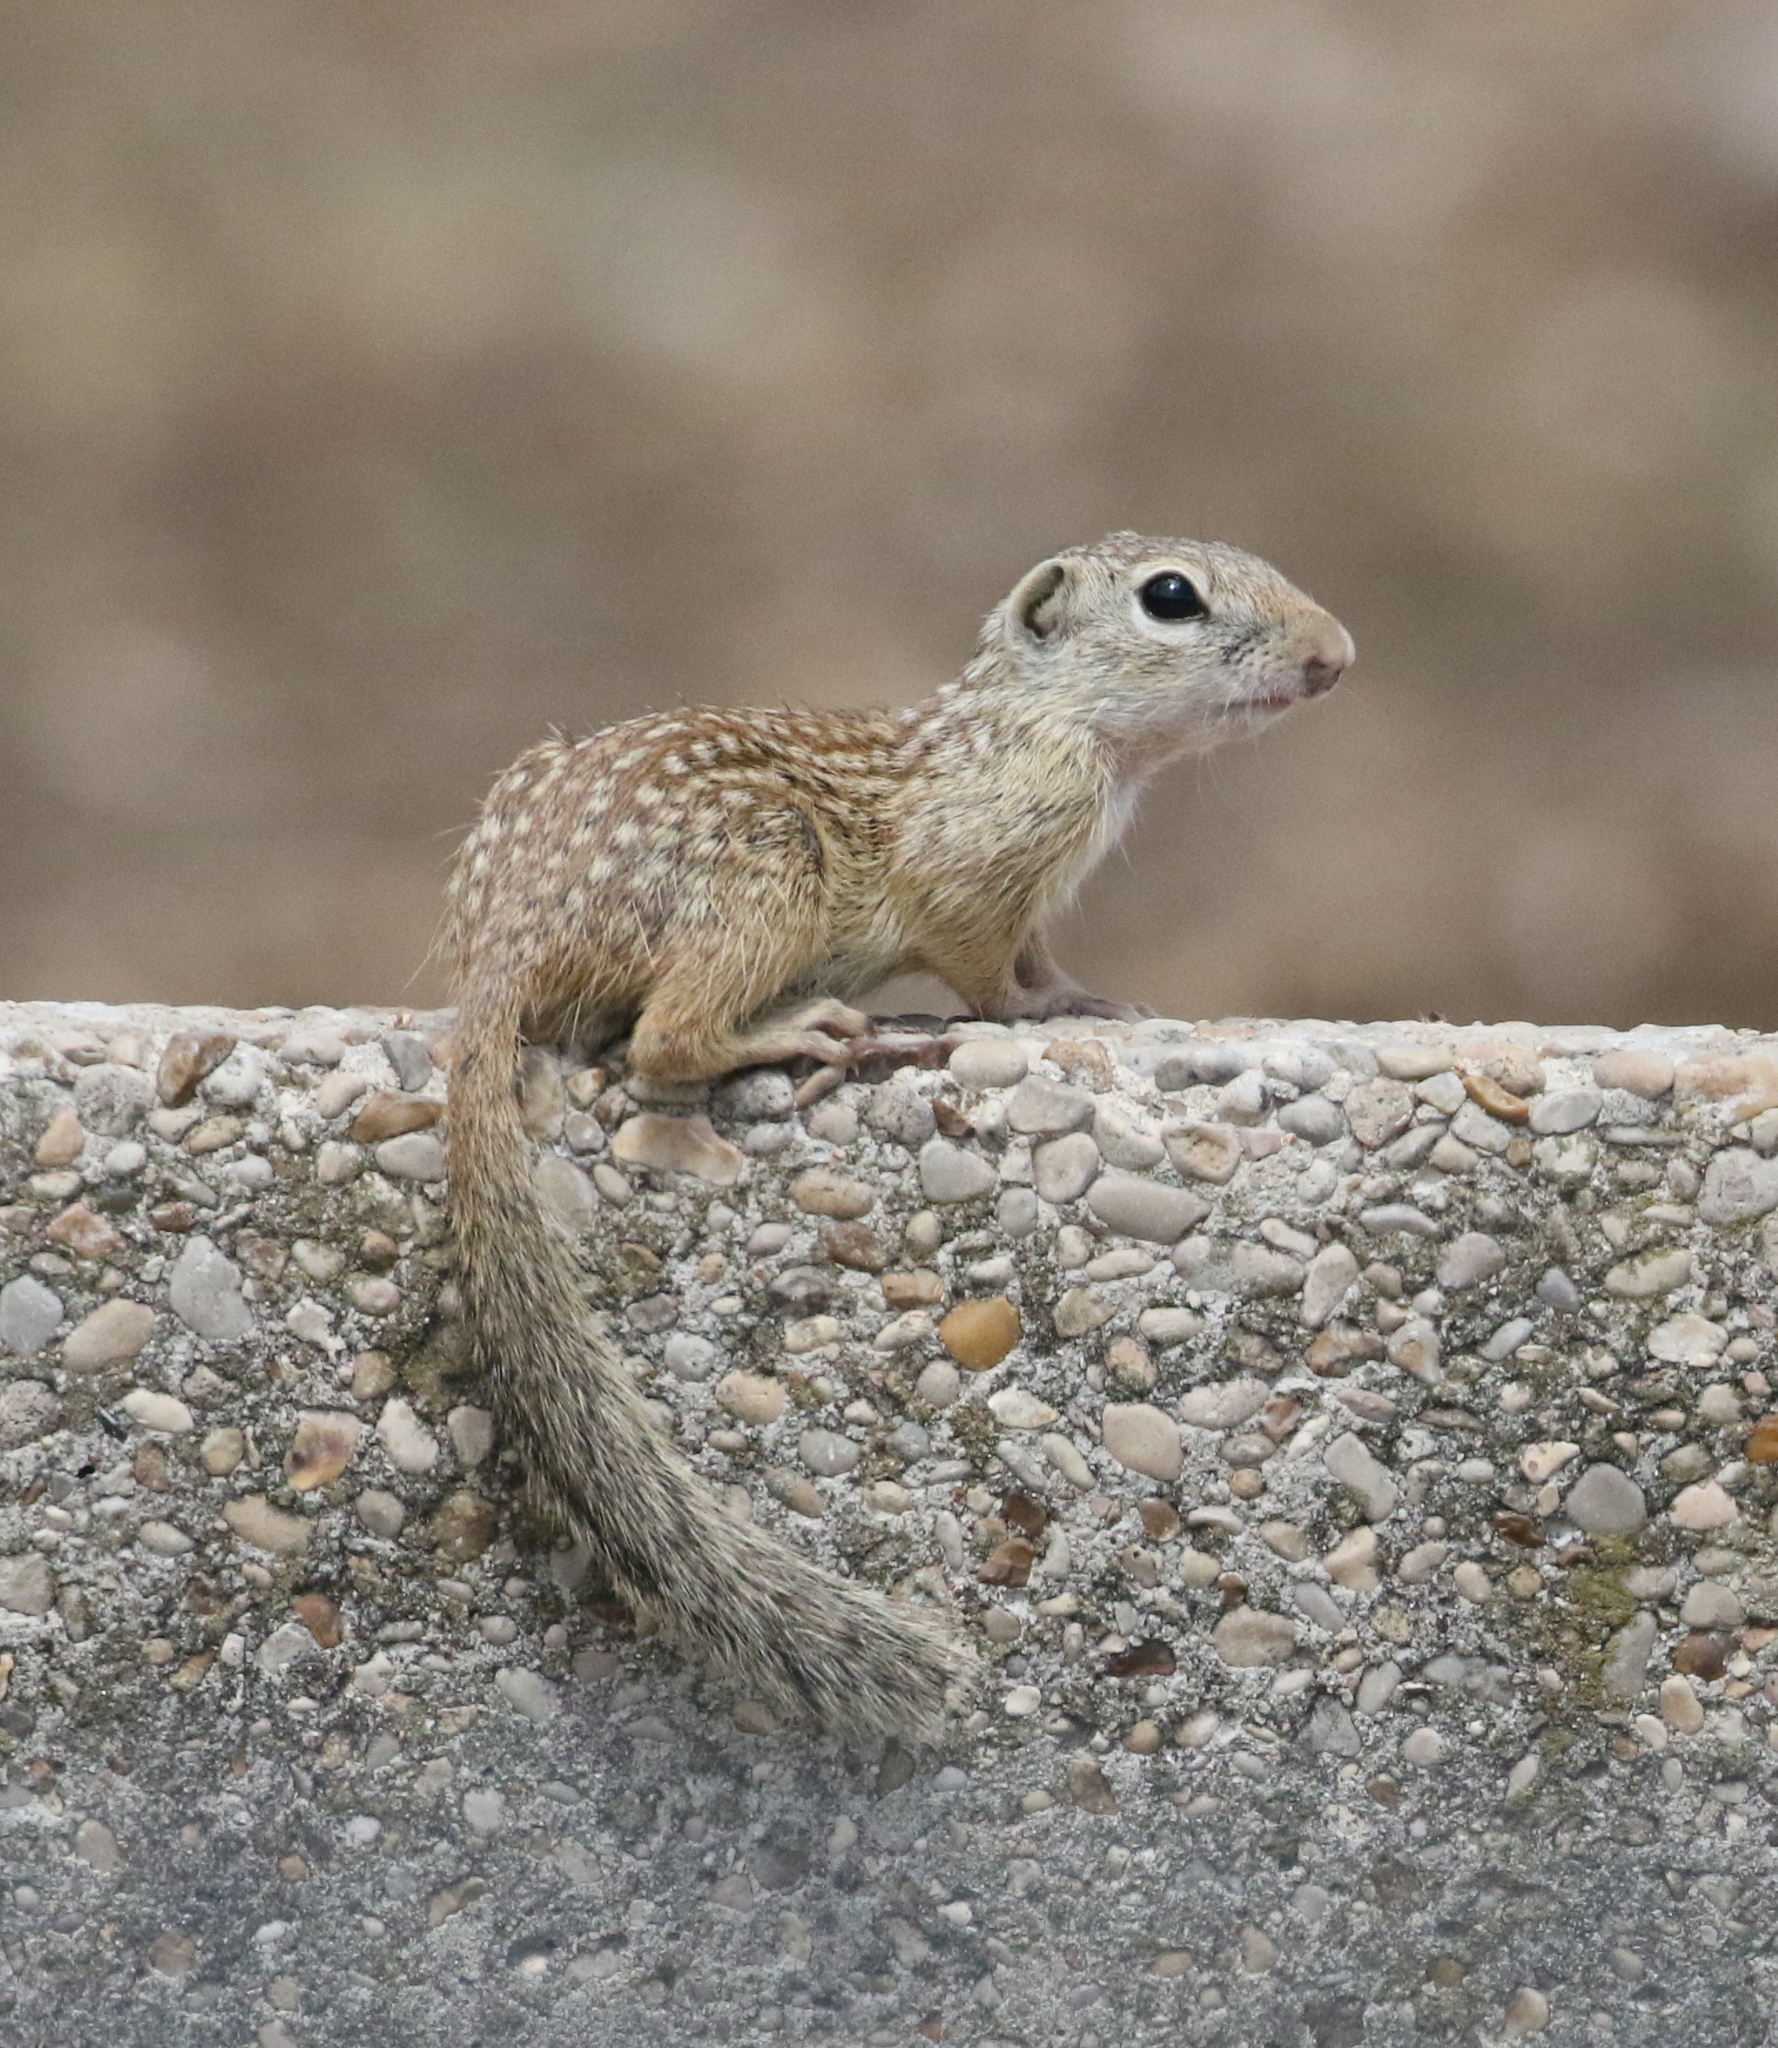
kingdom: Animalia
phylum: Chordata
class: Mammalia
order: Rodentia
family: Sciuridae
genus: Ictidomys
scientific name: Ictidomys parvidens
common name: Rio grande ground squirrel
